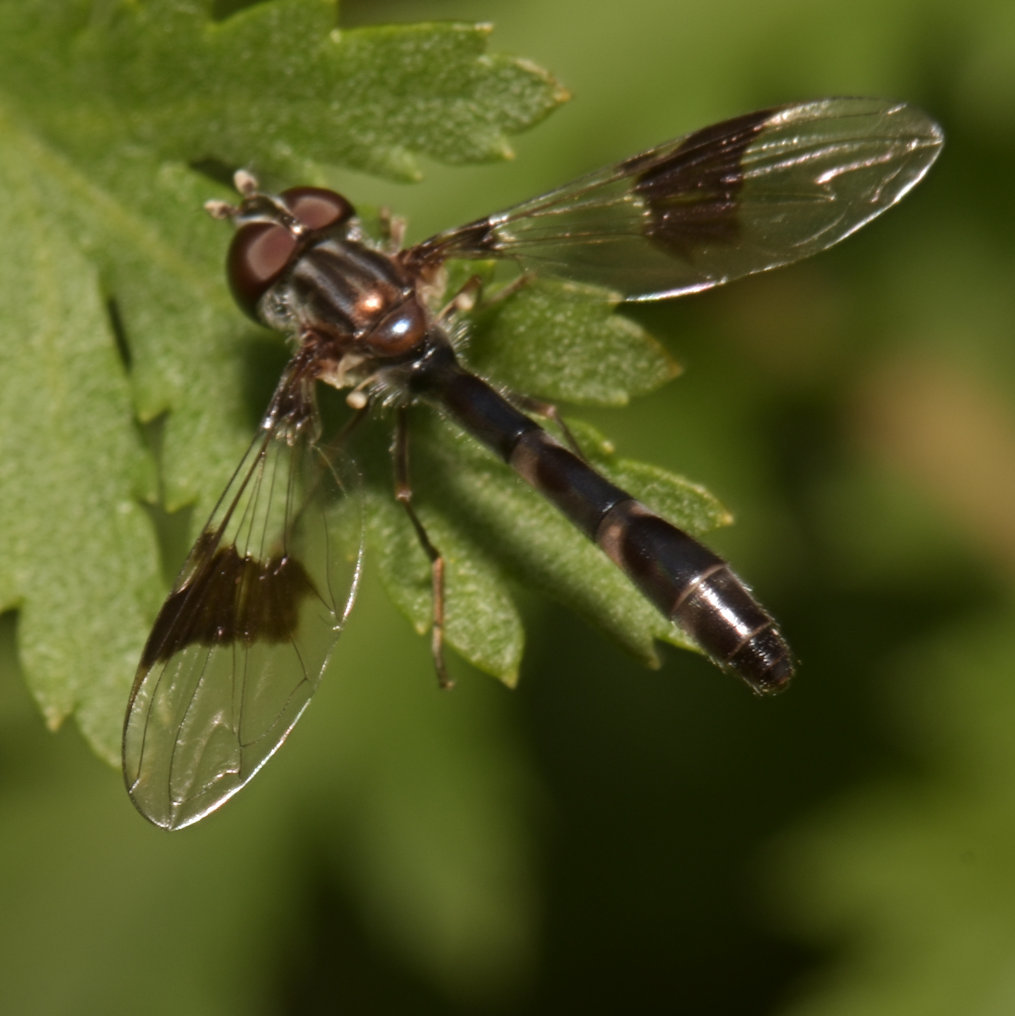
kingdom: Animalia
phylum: Arthropoda
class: Insecta
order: Diptera
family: Syrphidae
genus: Hypocritanus
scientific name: Hypocritanus fascipennis
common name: Eastern band-winged hover fly
